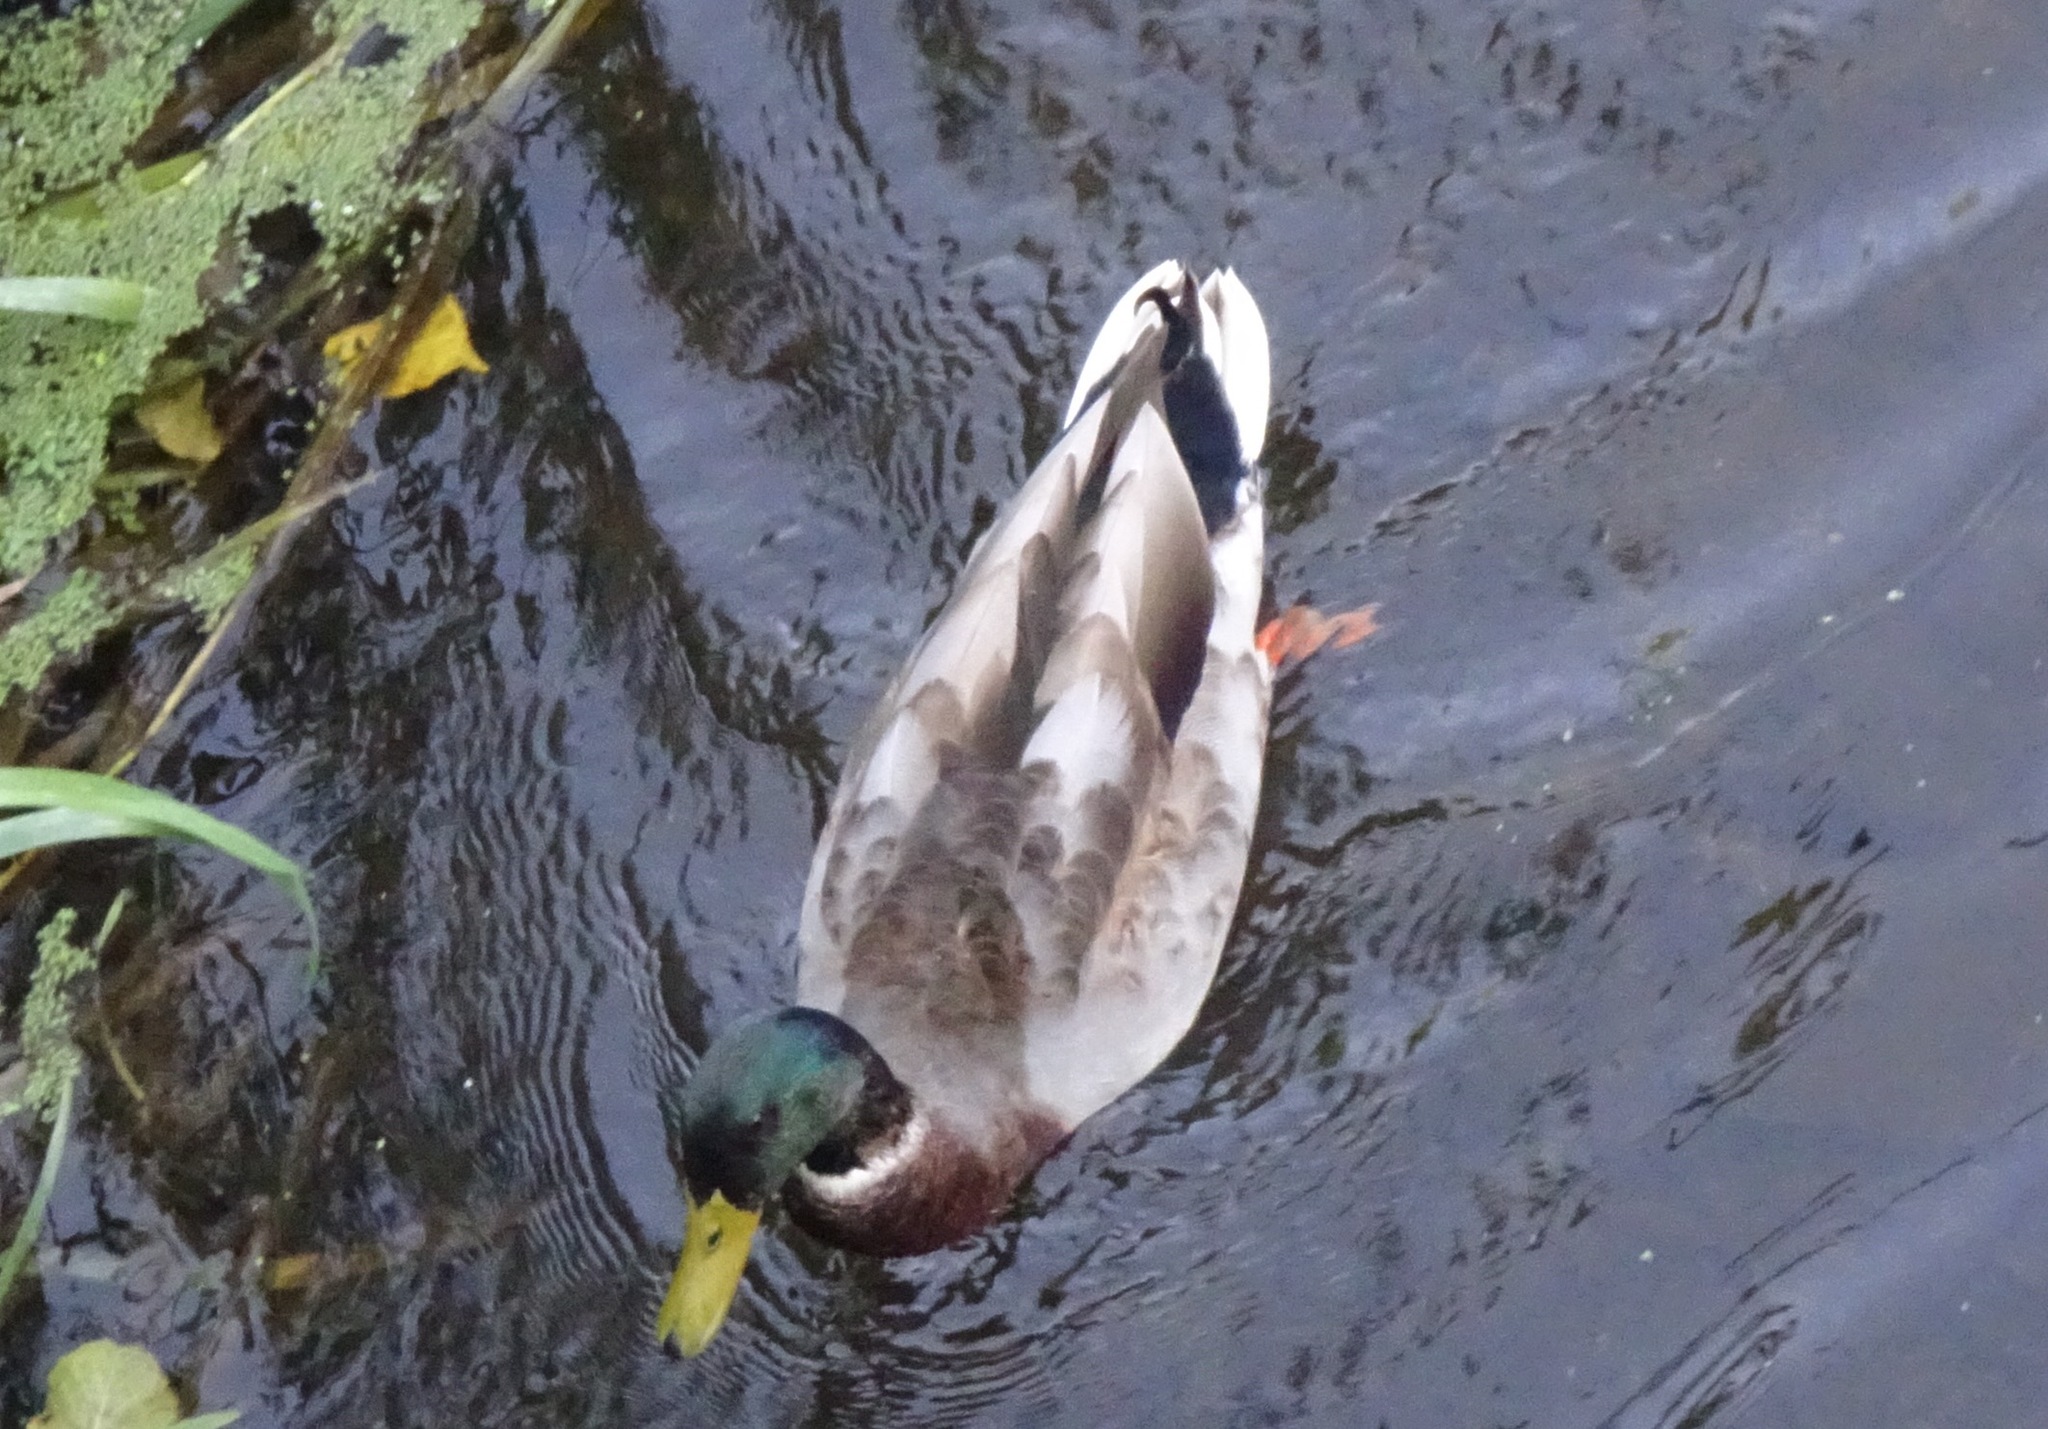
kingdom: Animalia
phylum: Chordata
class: Aves
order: Anseriformes
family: Anatidae
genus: Anas
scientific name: Anas platyrhynchos
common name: Mallard
